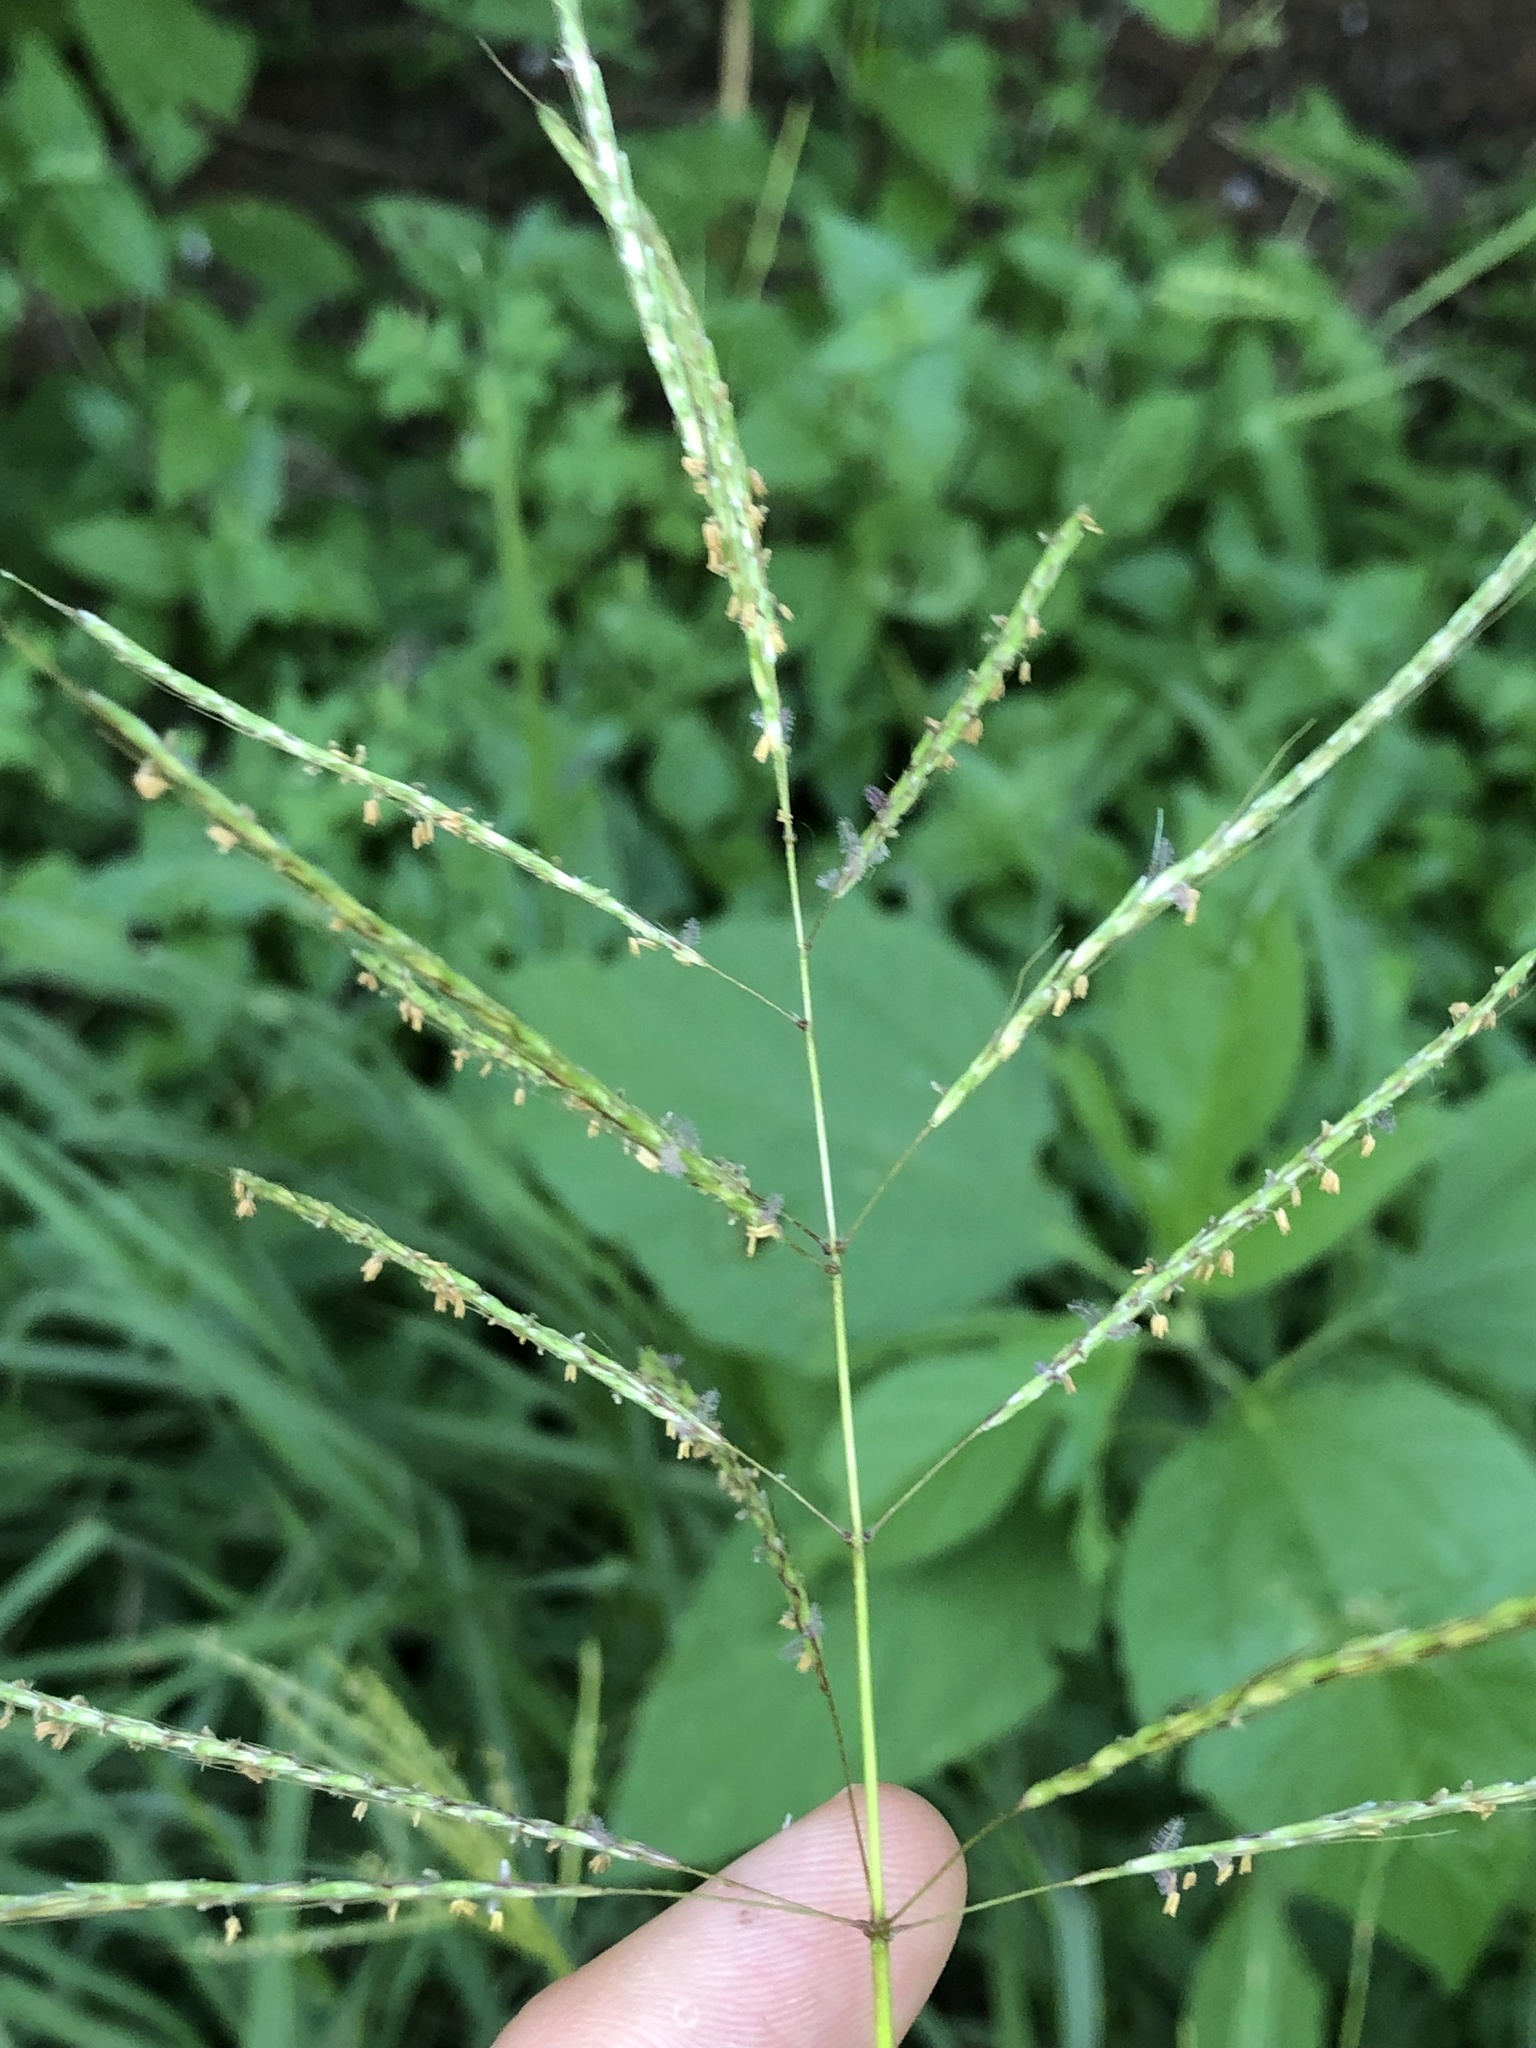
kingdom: Plantae
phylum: Tracheophyta
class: Liliopsida
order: Poales
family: Poaceae
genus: Bothriochloa
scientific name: Bothriochloa bladhii
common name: Caucasian bluestem
